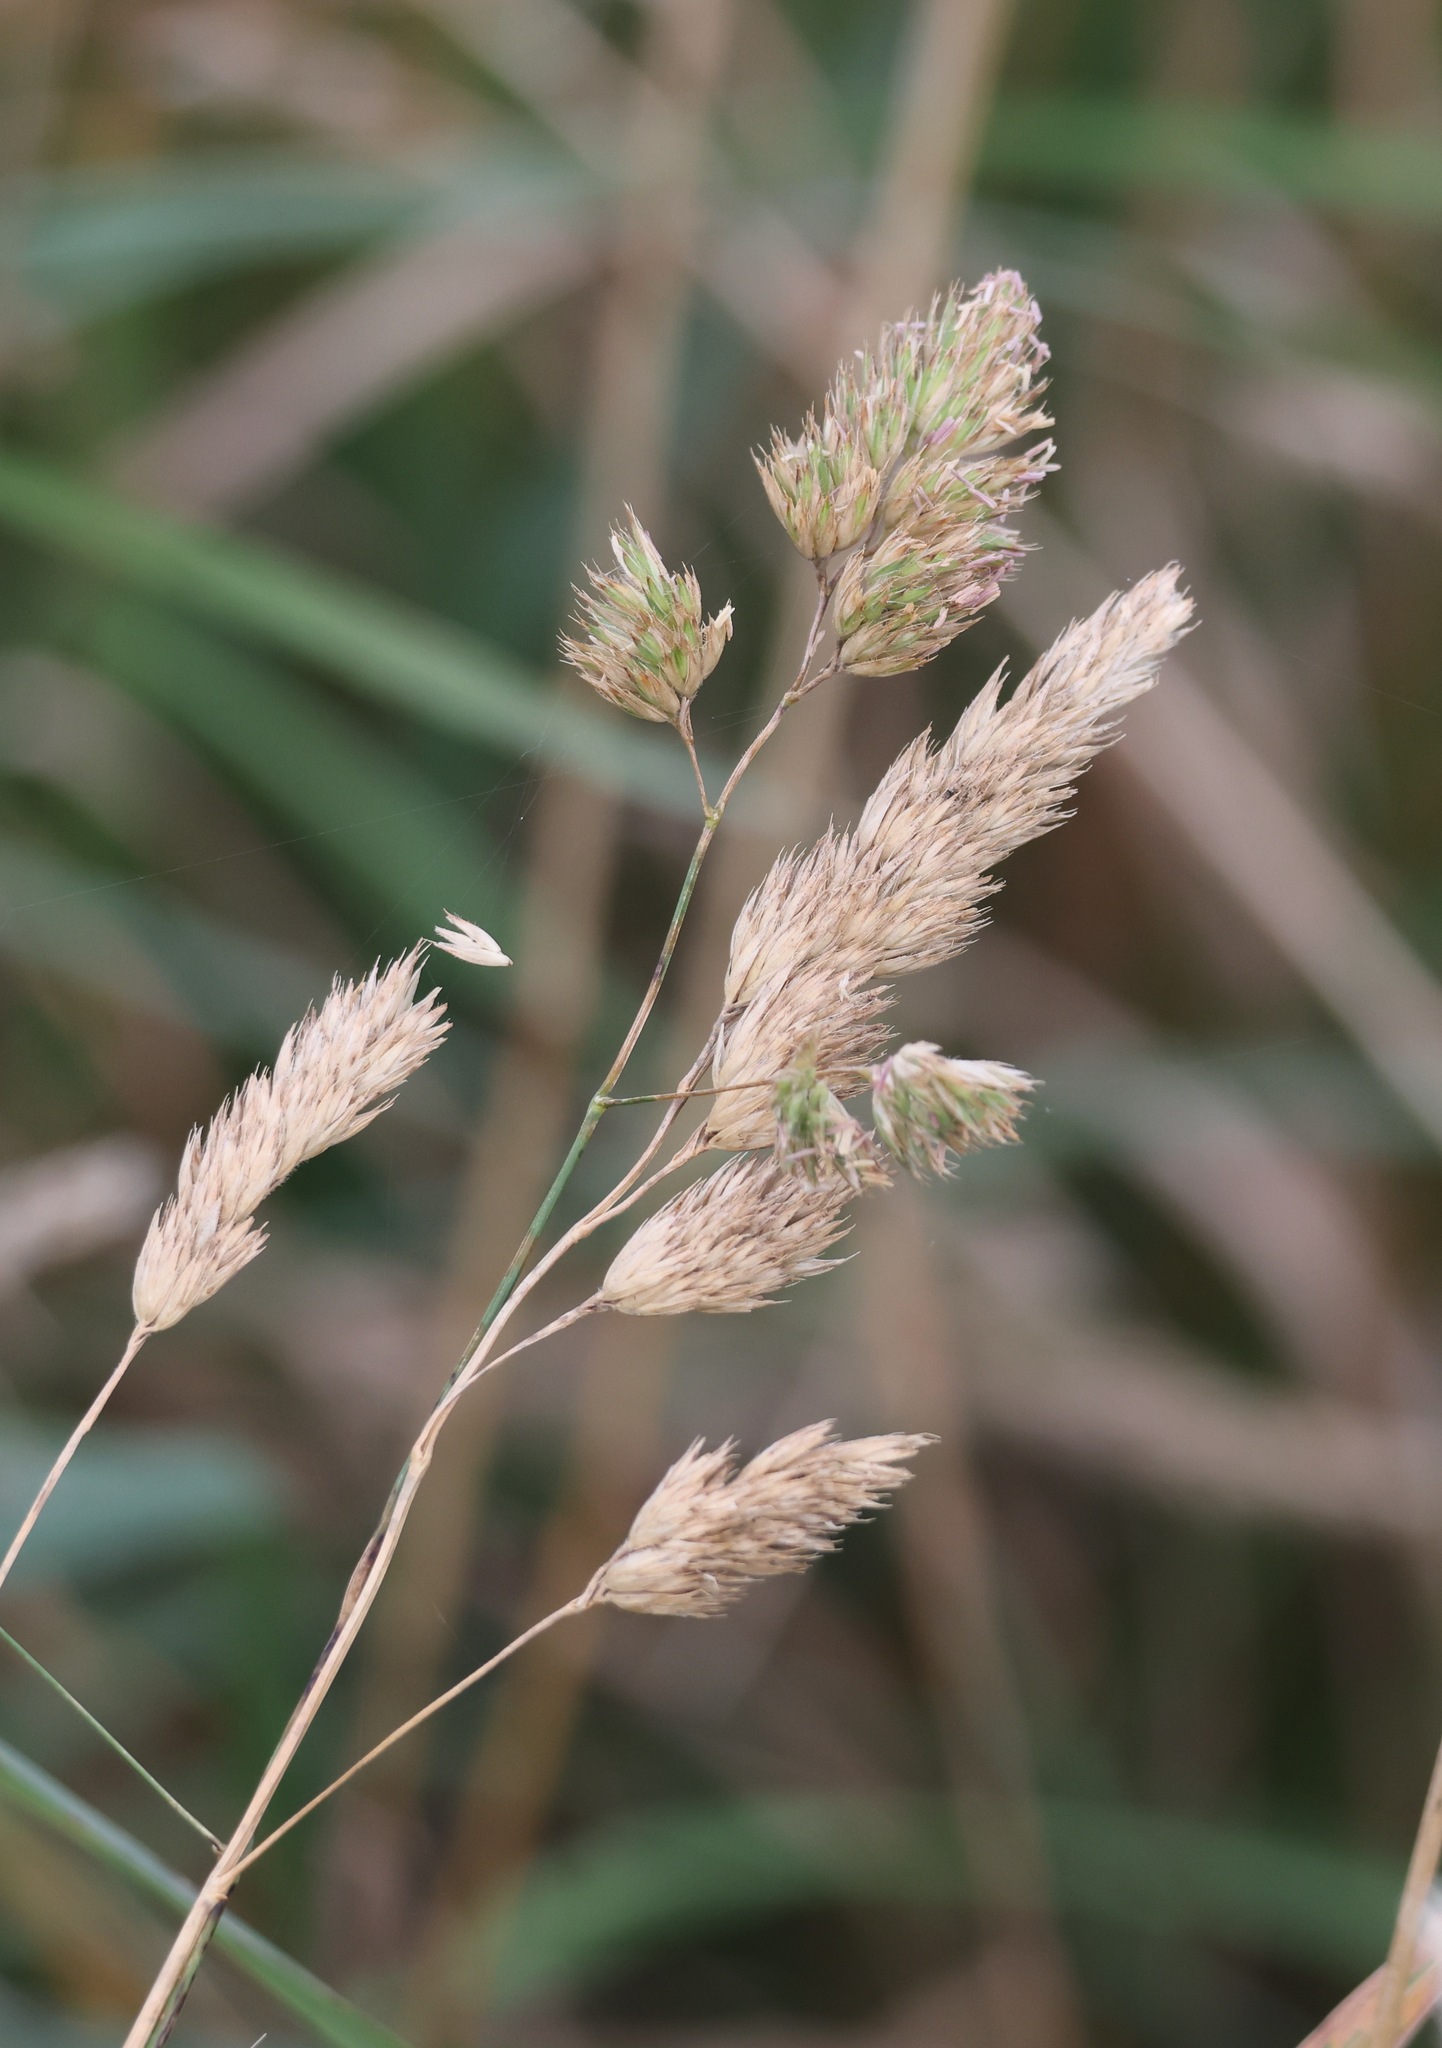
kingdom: Plantae
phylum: Tracheophyta
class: Liliopsida
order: Poales
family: Poaceae
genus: Dactylis
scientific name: Dactylis glomerata
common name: Orchardgrass
